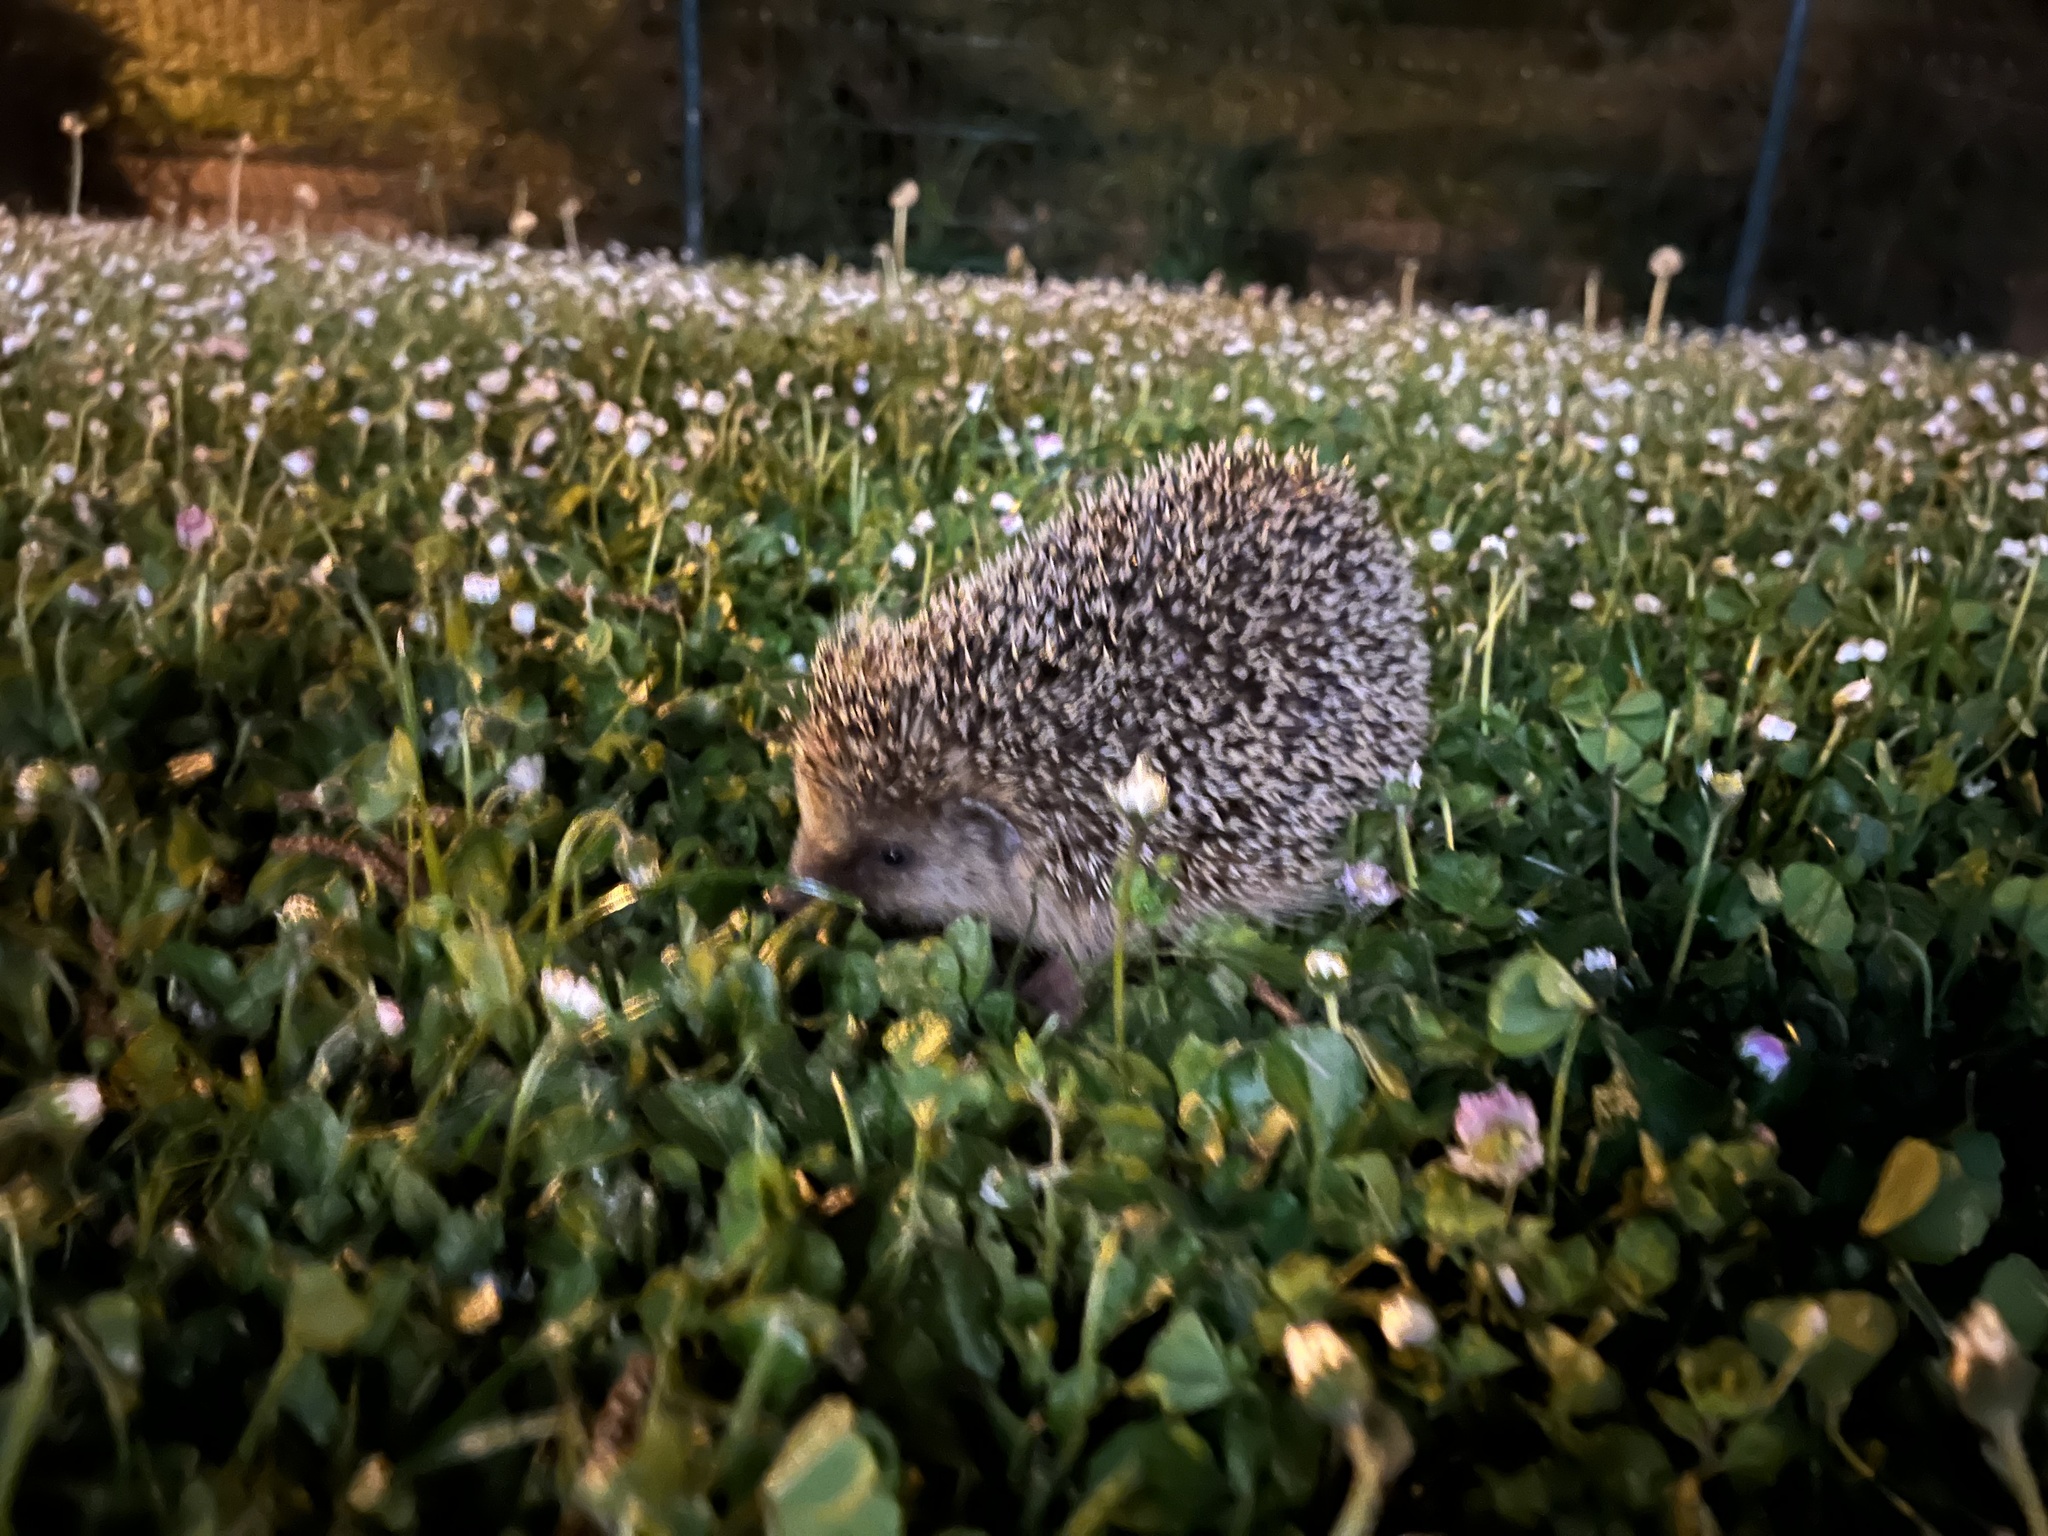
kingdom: Animalia
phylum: Chordata
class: Mammalia
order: Erinaceomorpha
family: Erinaceidae
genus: Erinaceus
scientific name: Erinaceus europaeus
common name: West european hedgehog
